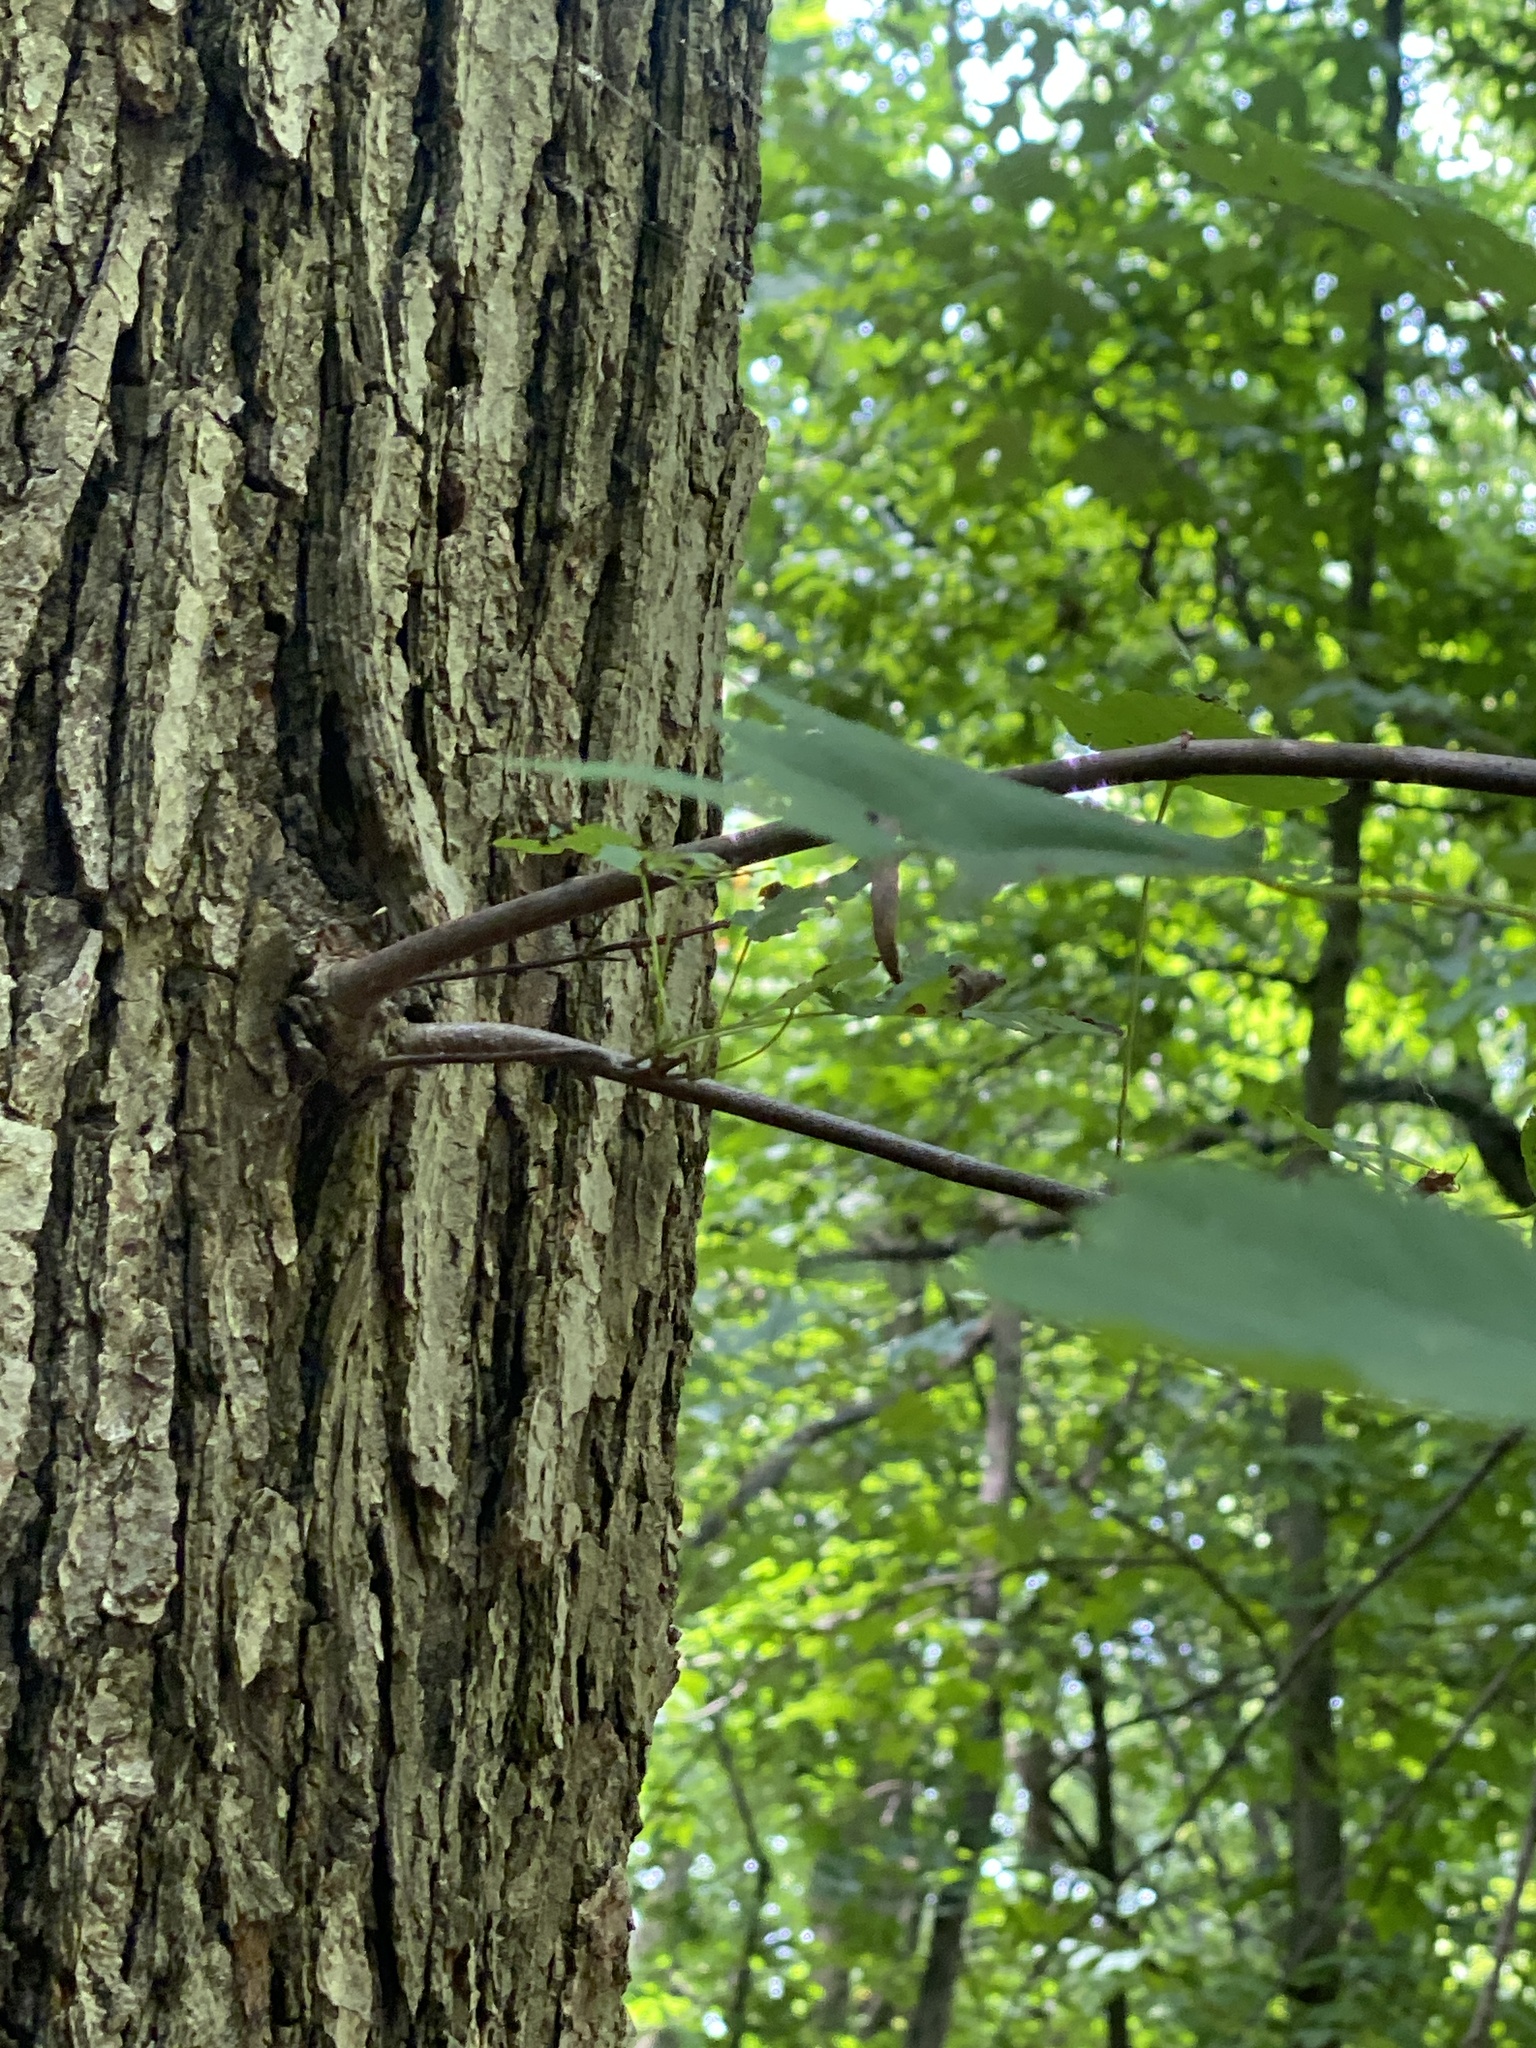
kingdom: Plantae
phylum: Tracheophyta
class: Magnoliopsida
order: Sapindales
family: Sapindaceae
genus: Acer
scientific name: Acer rubrum
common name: Red maple
